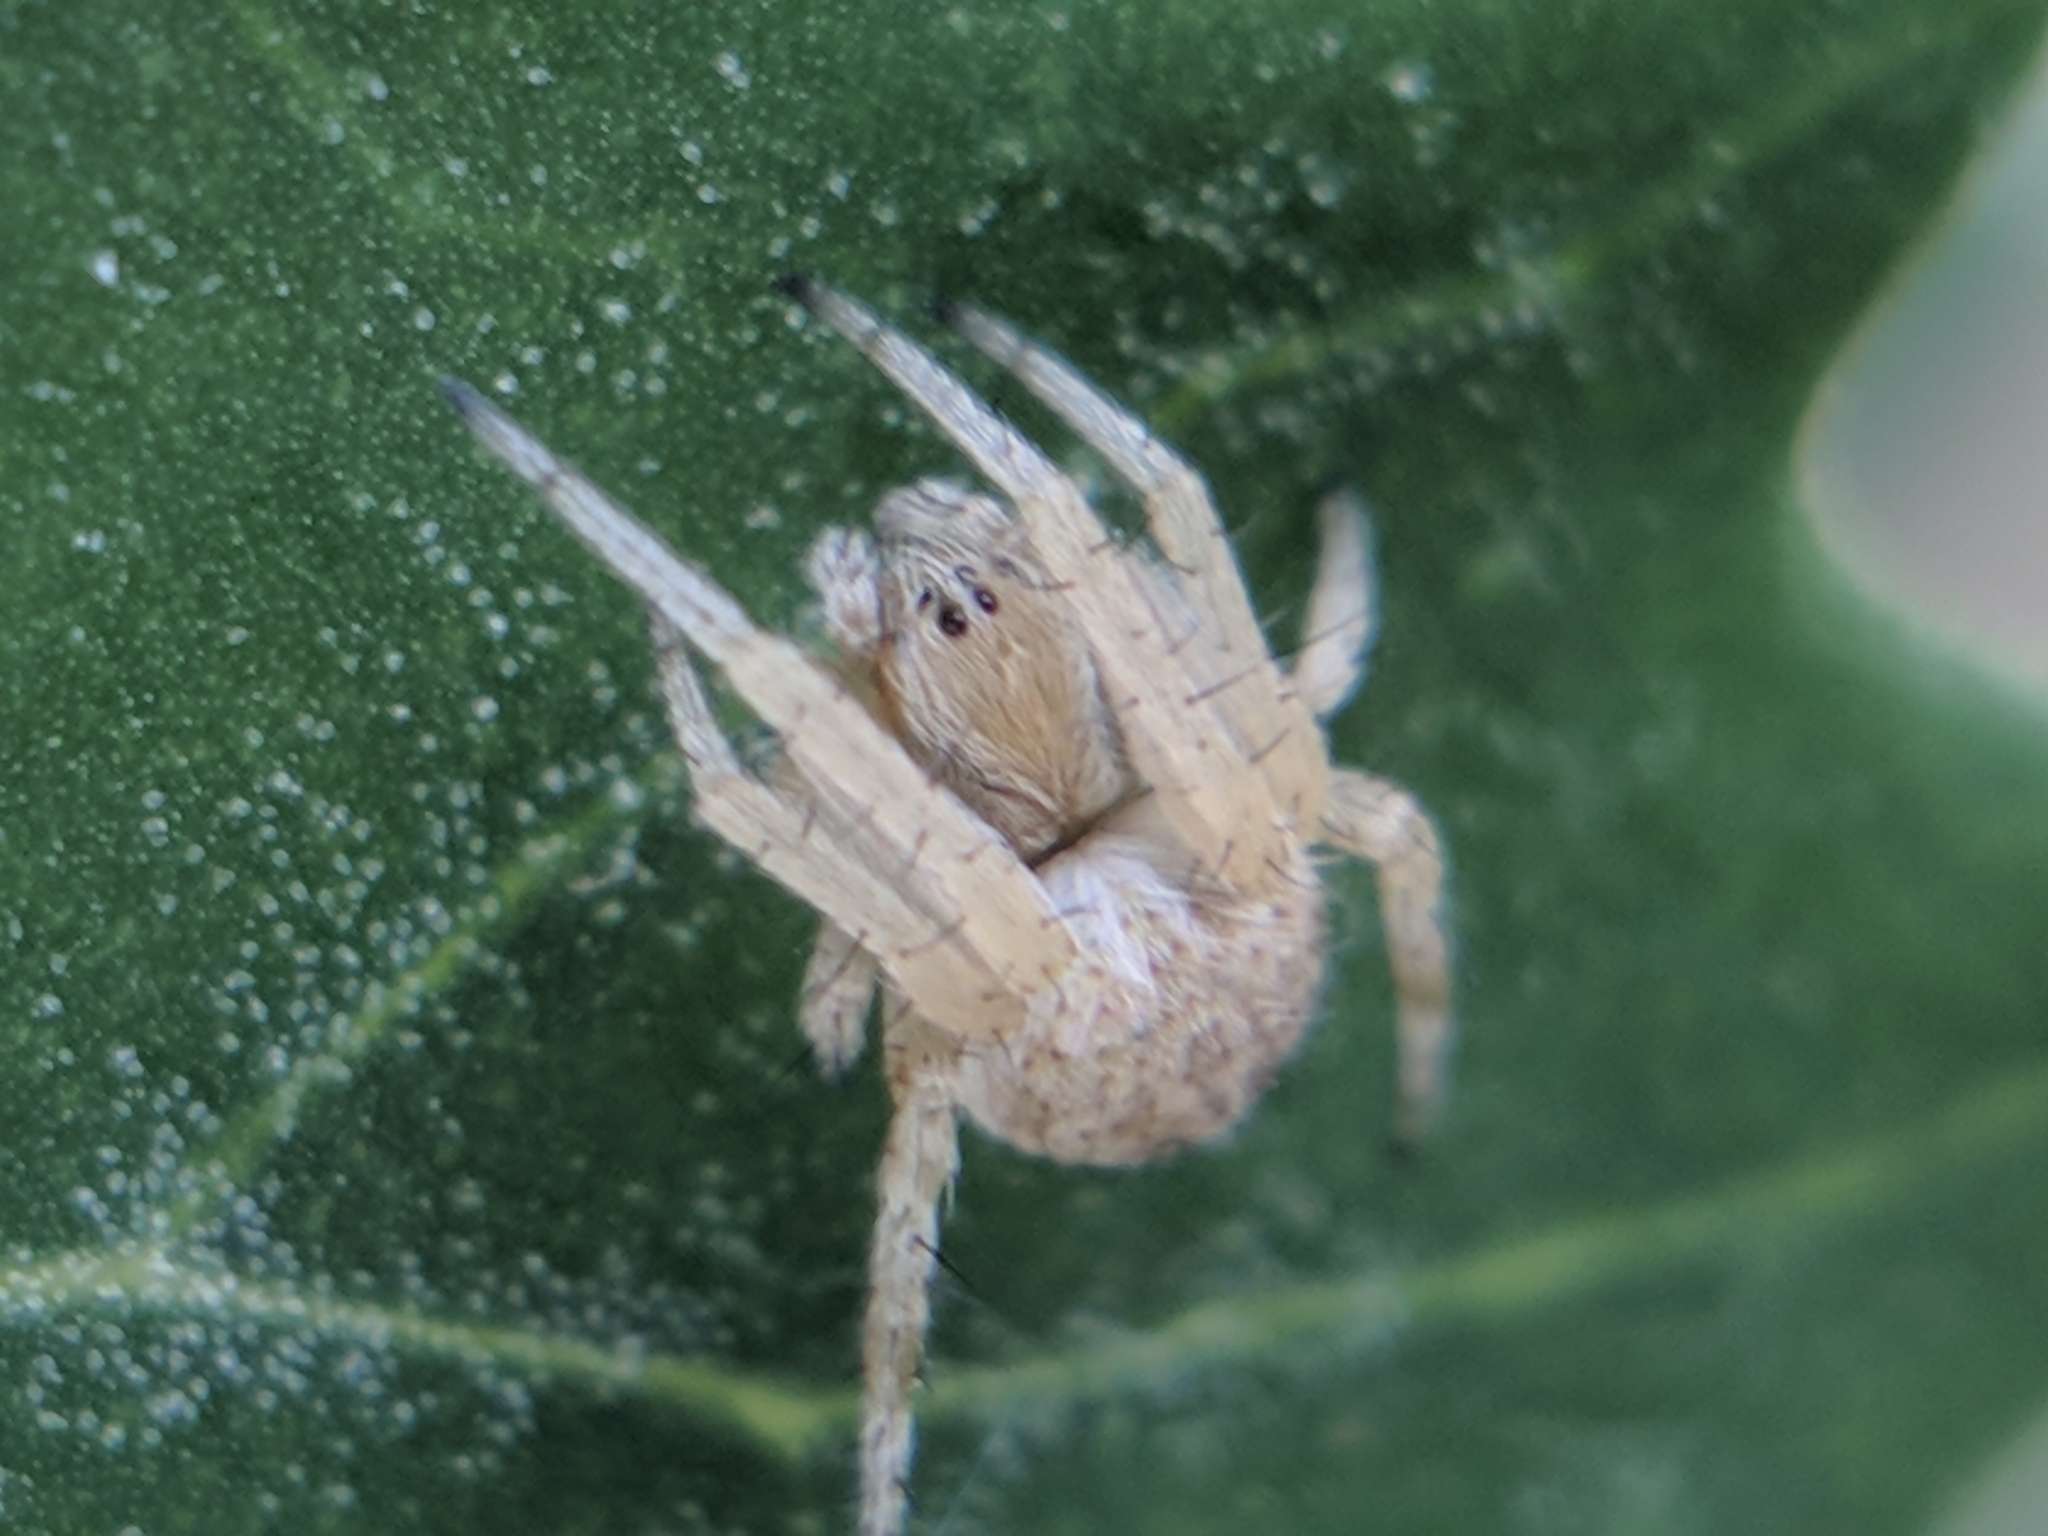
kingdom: Animalia
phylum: Arthropoda
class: Arachnida
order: Araneae
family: Araneidae
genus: Agalenatea
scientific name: Agalenatea redii
